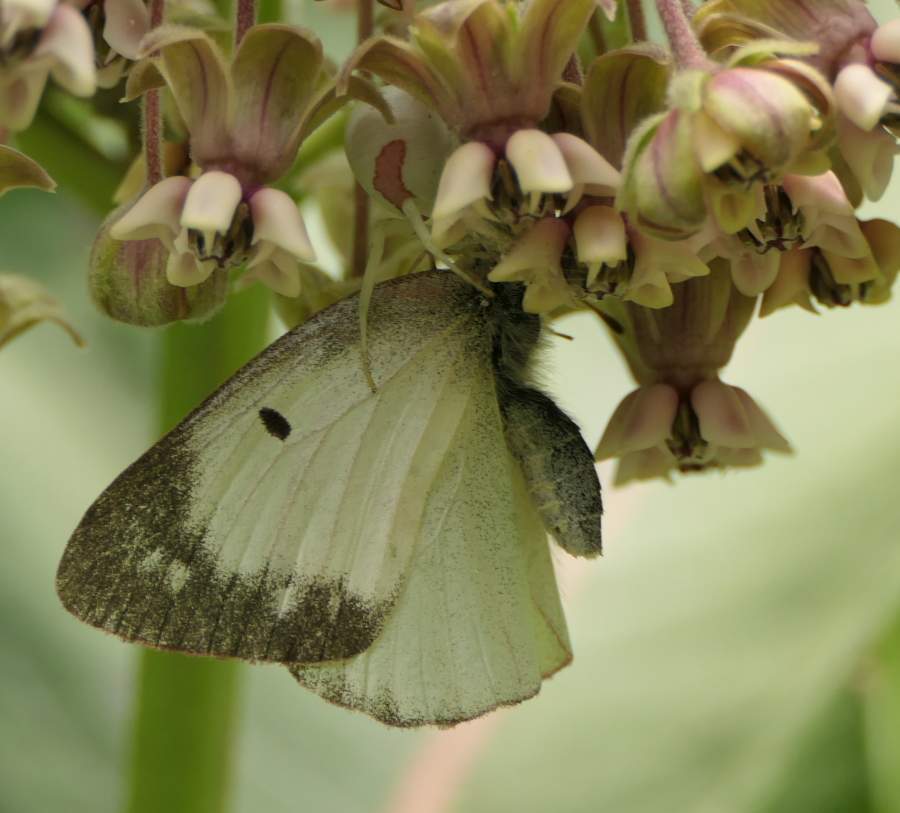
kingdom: Animalia
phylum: Arthropoda
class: Insecta
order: Lepidoptera
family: Pieridae
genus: Colias
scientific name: Colias philodice
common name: Clouded sulphur
